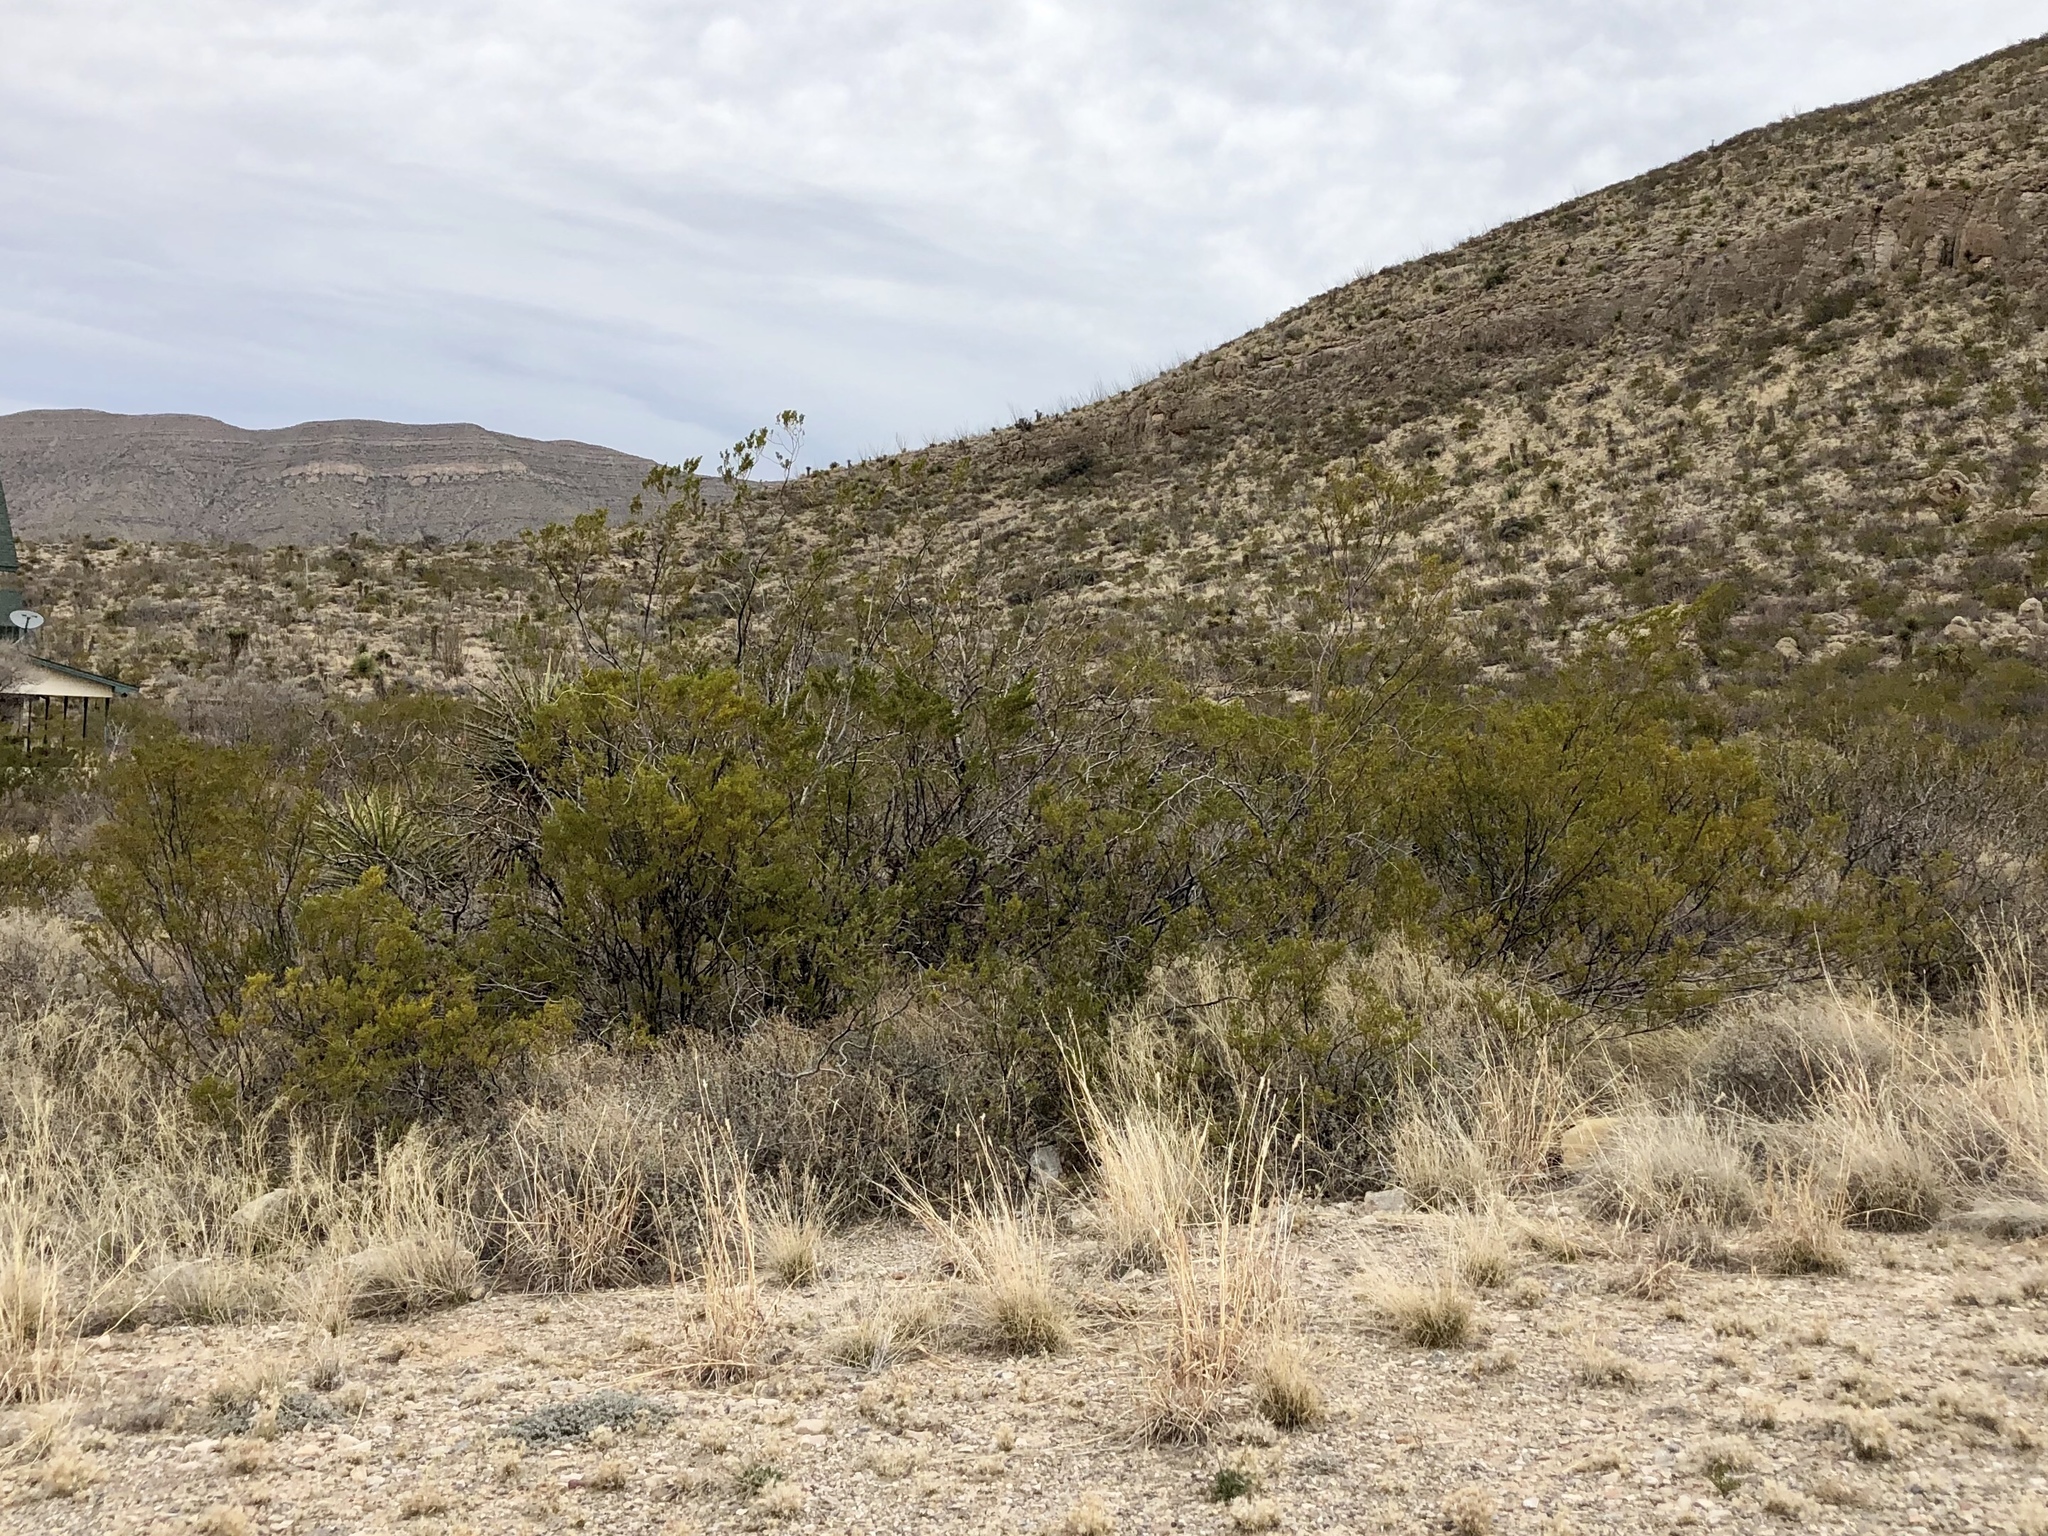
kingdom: Plantae
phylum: Tracheophyta
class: Magnoliopsida
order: Zygophyllales
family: Zygophyllaceae
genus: Larrea
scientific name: Larrea tridentata
